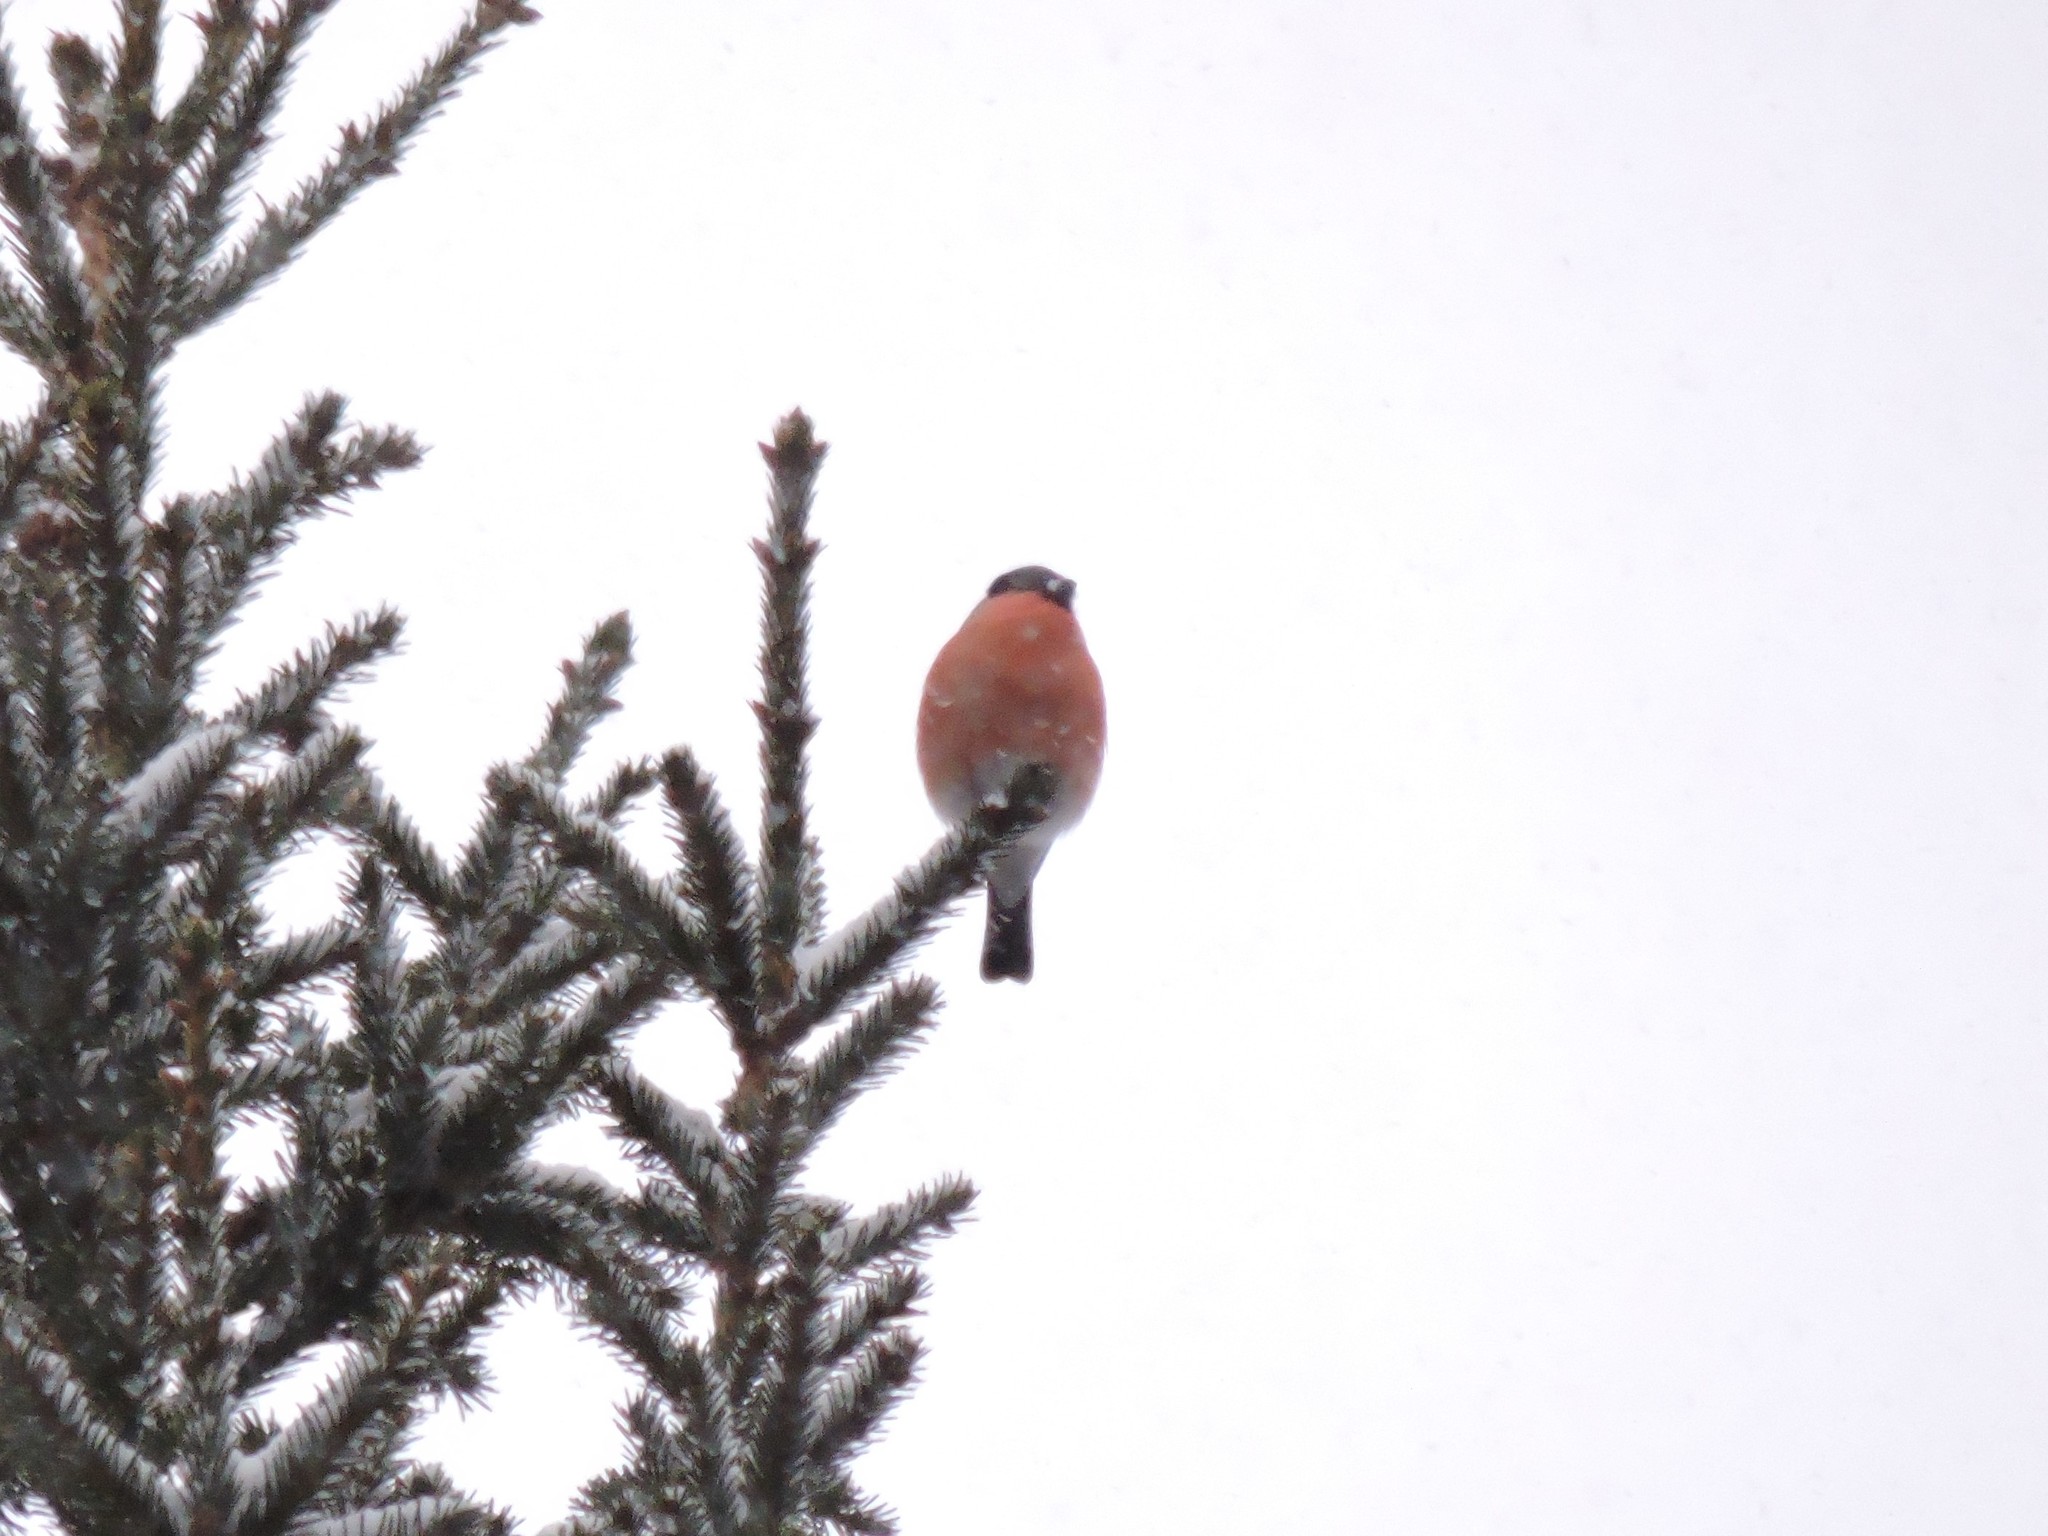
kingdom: Animalia
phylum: Chordata
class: Aves
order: Passeriformes
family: Fringillidae
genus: Pyrrhula
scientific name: Pyrrhula pyrrhula
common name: Eurasian bullfinch
